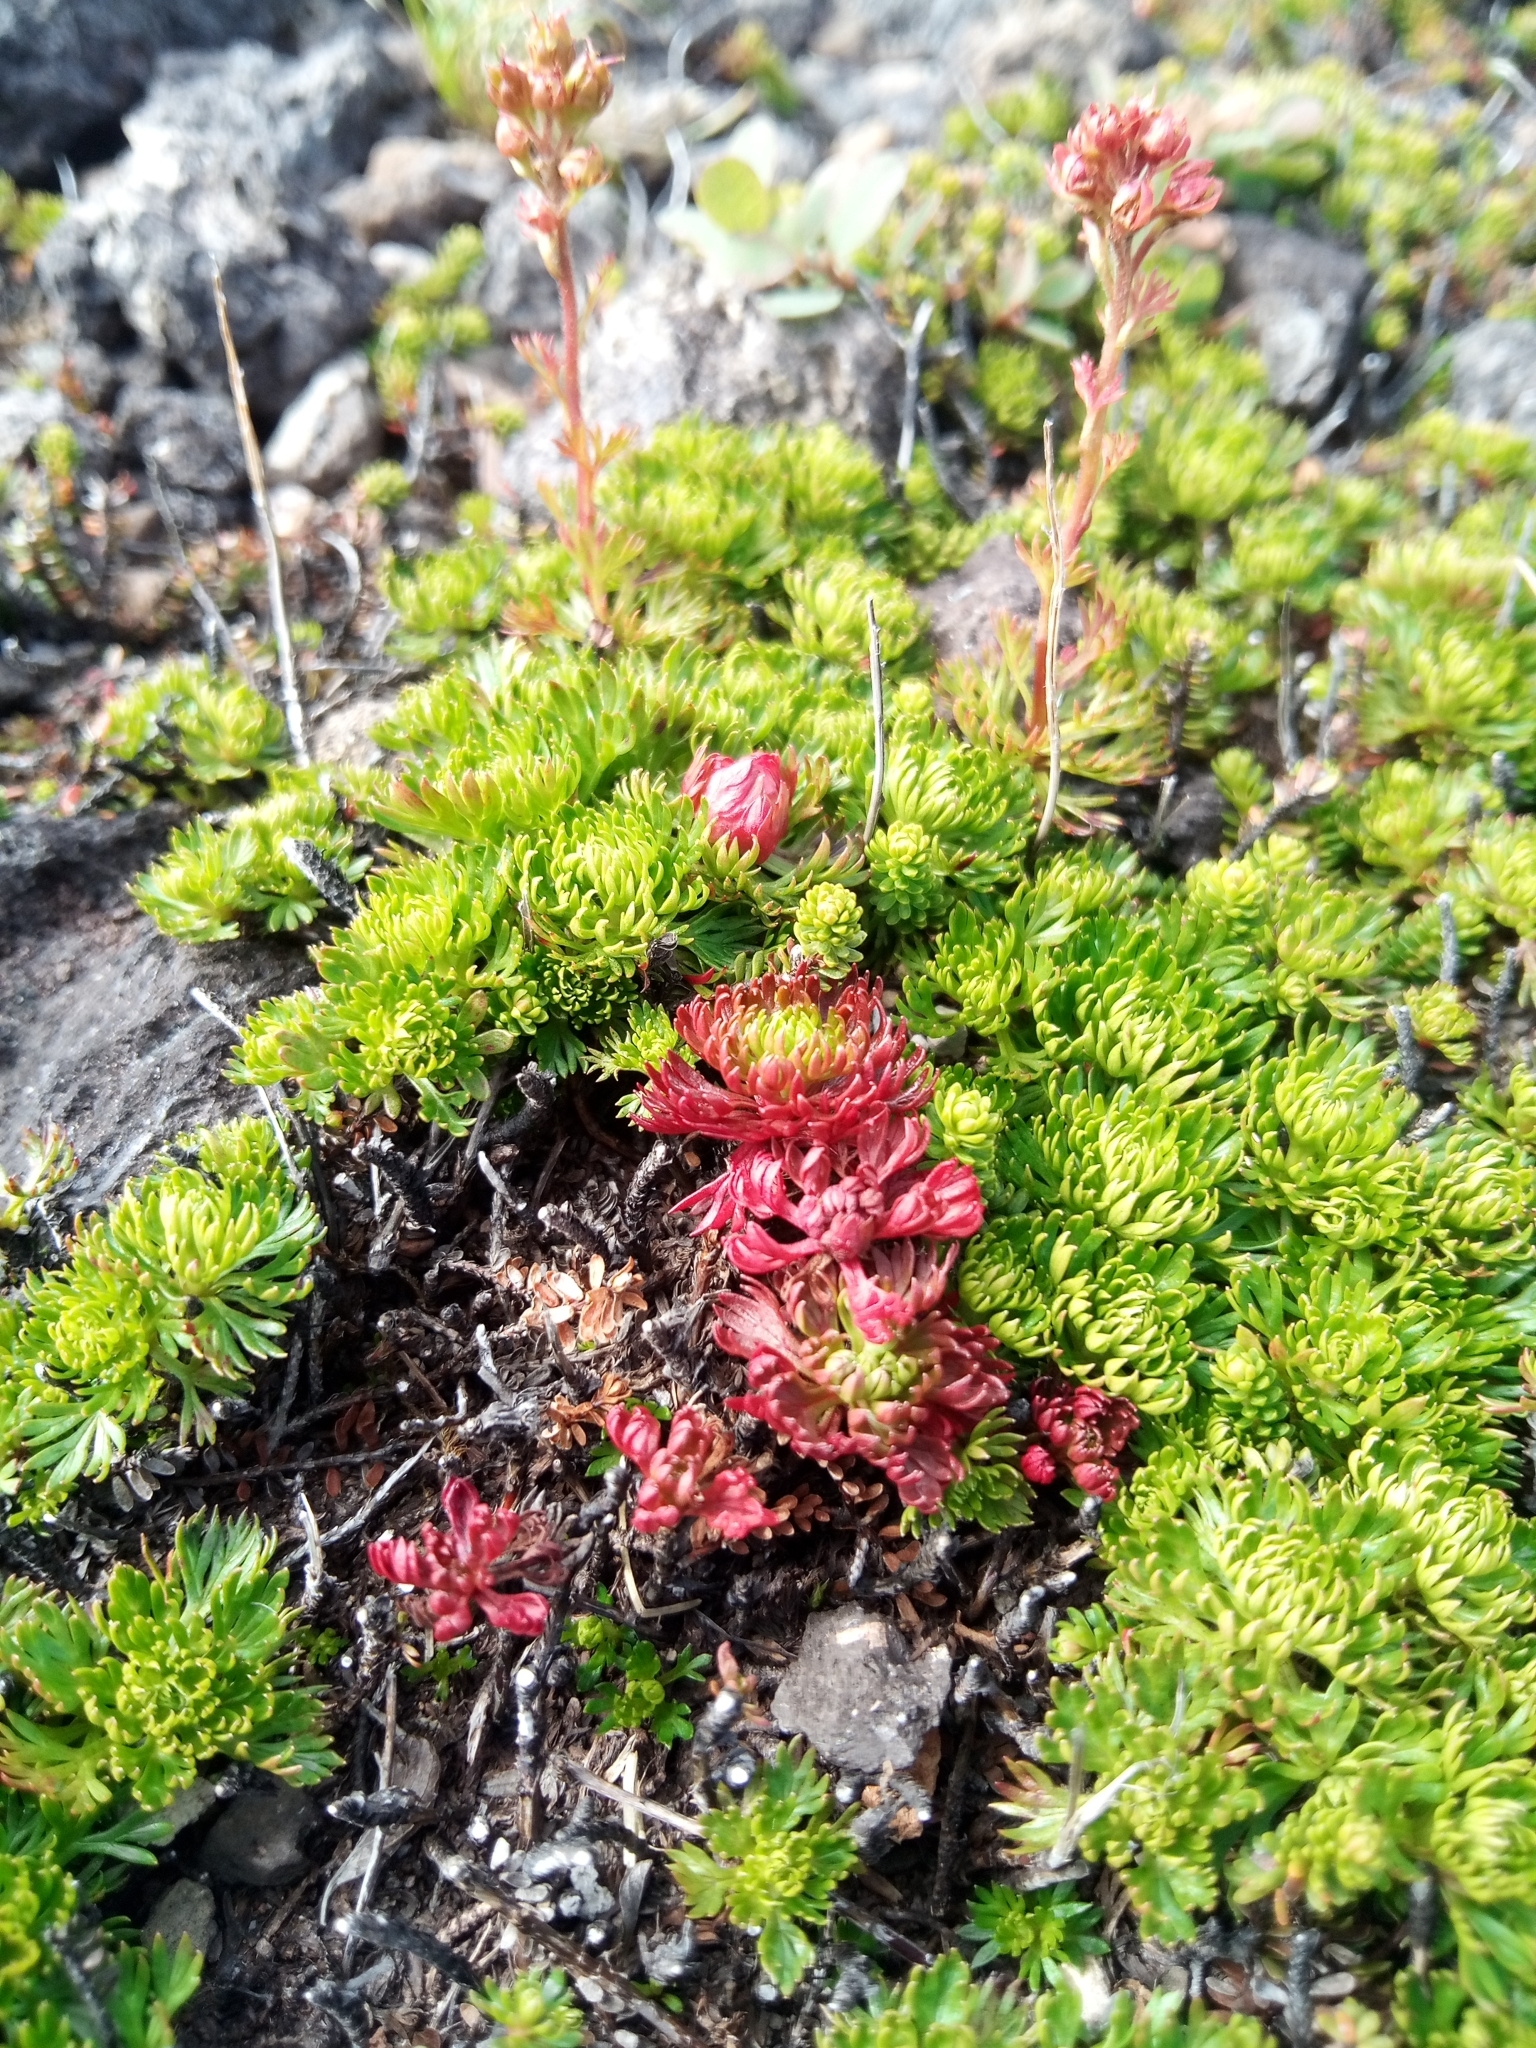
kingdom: Plantae
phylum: Tracheophyta
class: Magnoliopsida
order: Rosales
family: Rosaceae
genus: Luetkea
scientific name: Luetkea pectinata
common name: Partridgefoot
